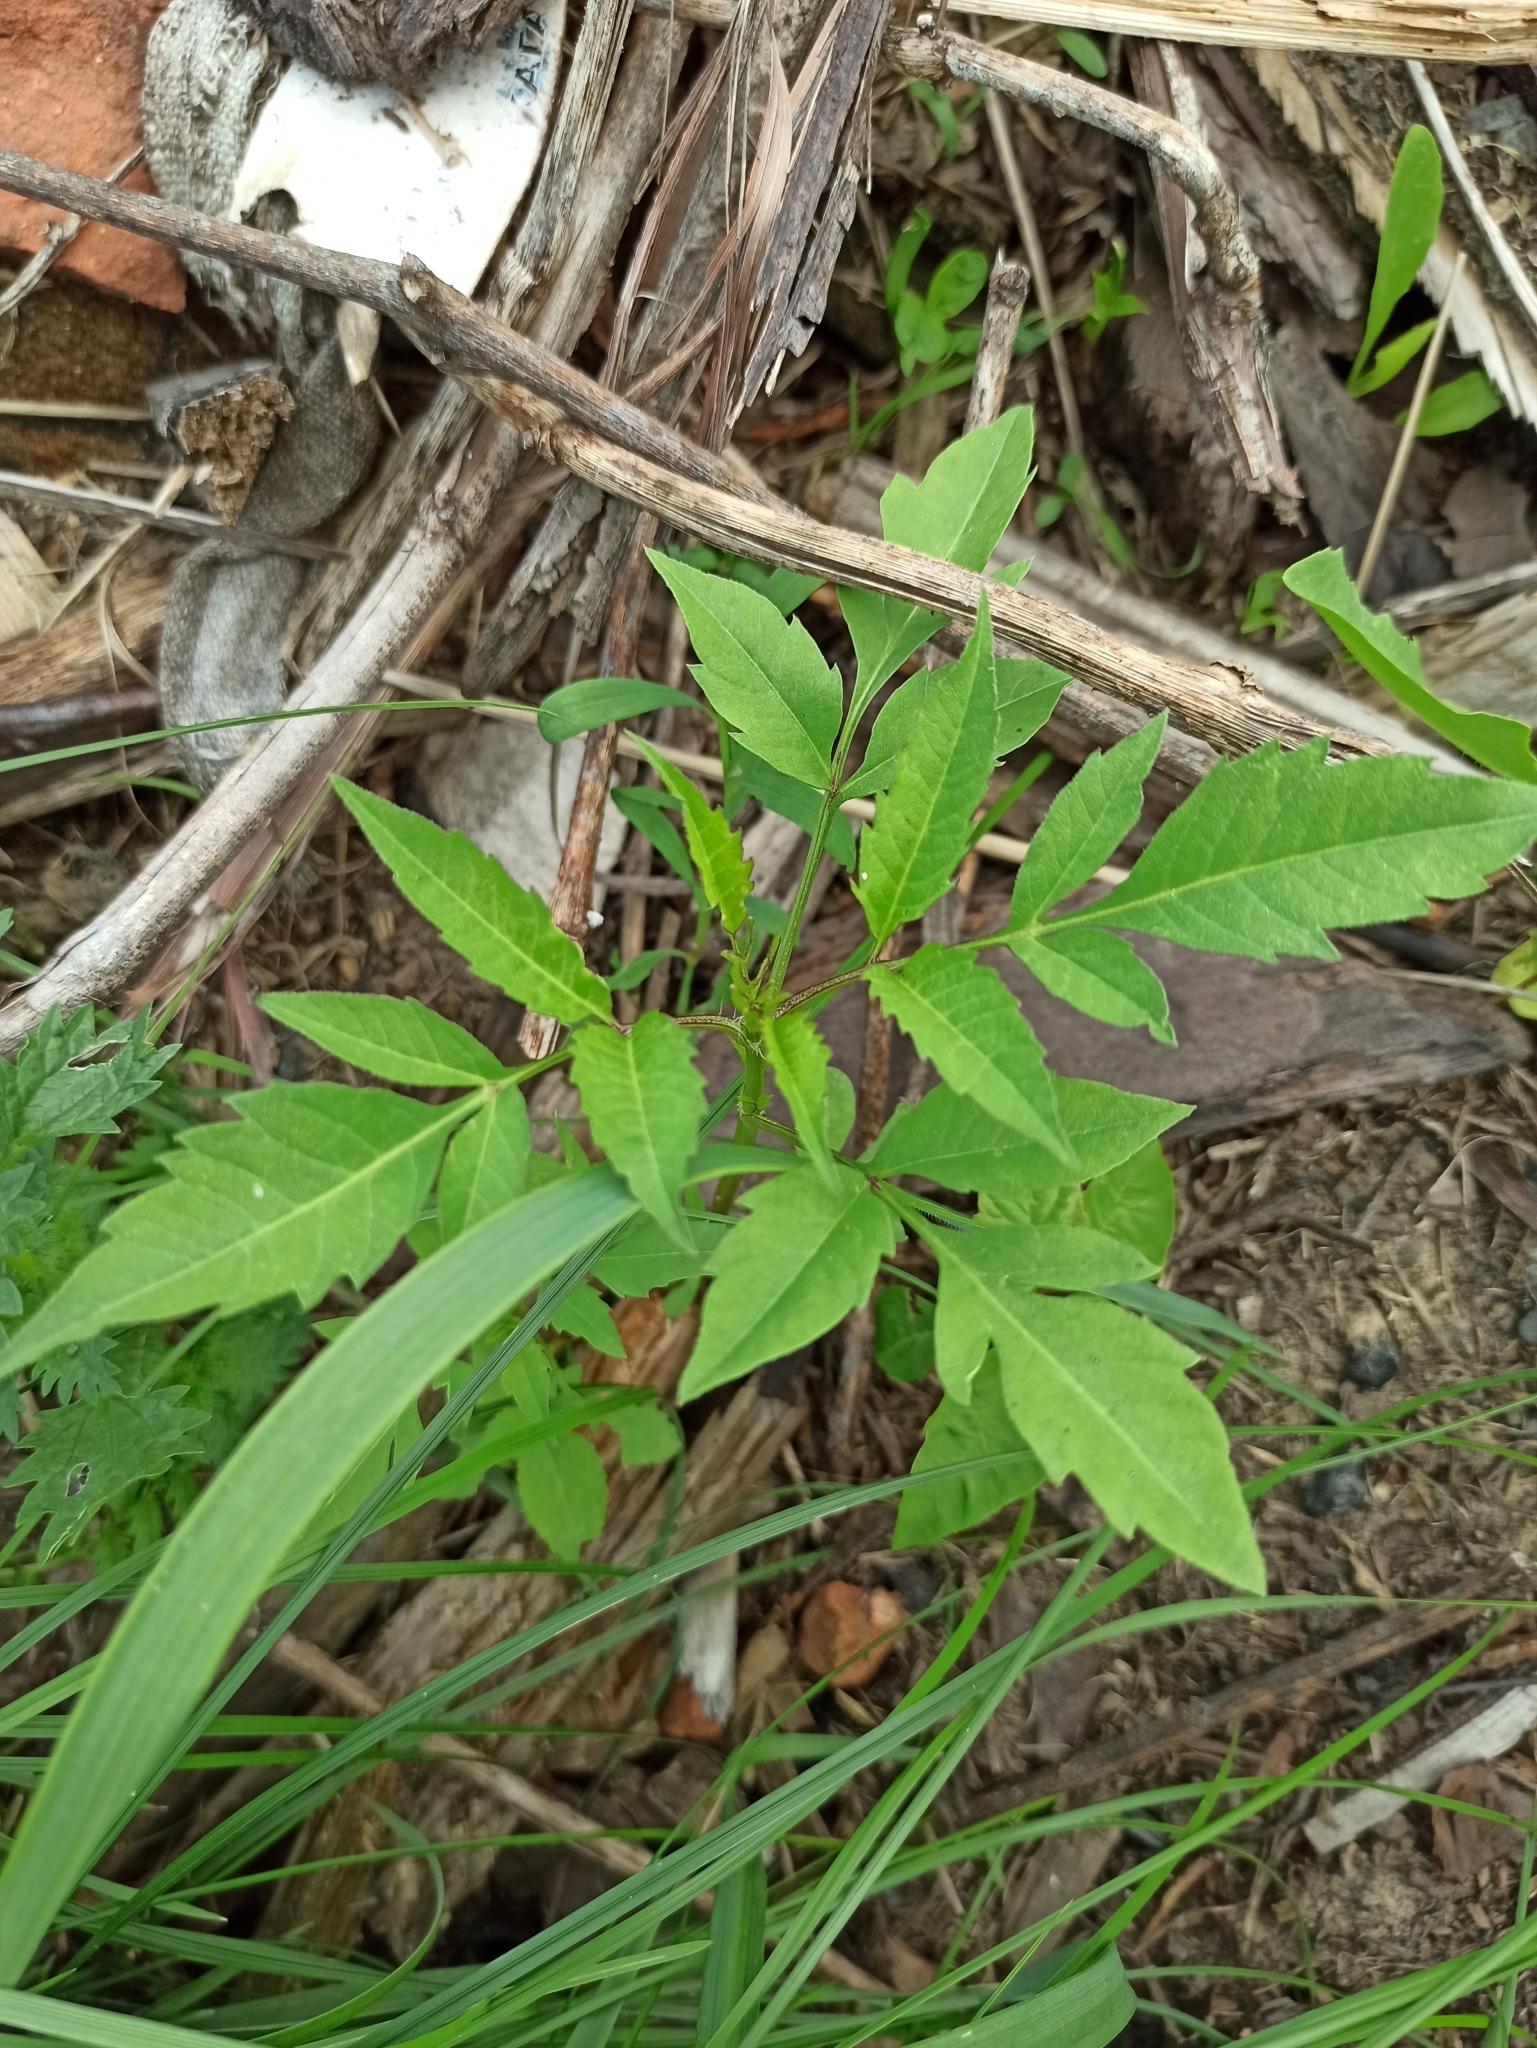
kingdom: Plantae
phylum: Tracheophyta
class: Magnoliopsida
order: Asterales
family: Asteraceae
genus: Bidens
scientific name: Bidens frondosa
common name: Beggarticks
